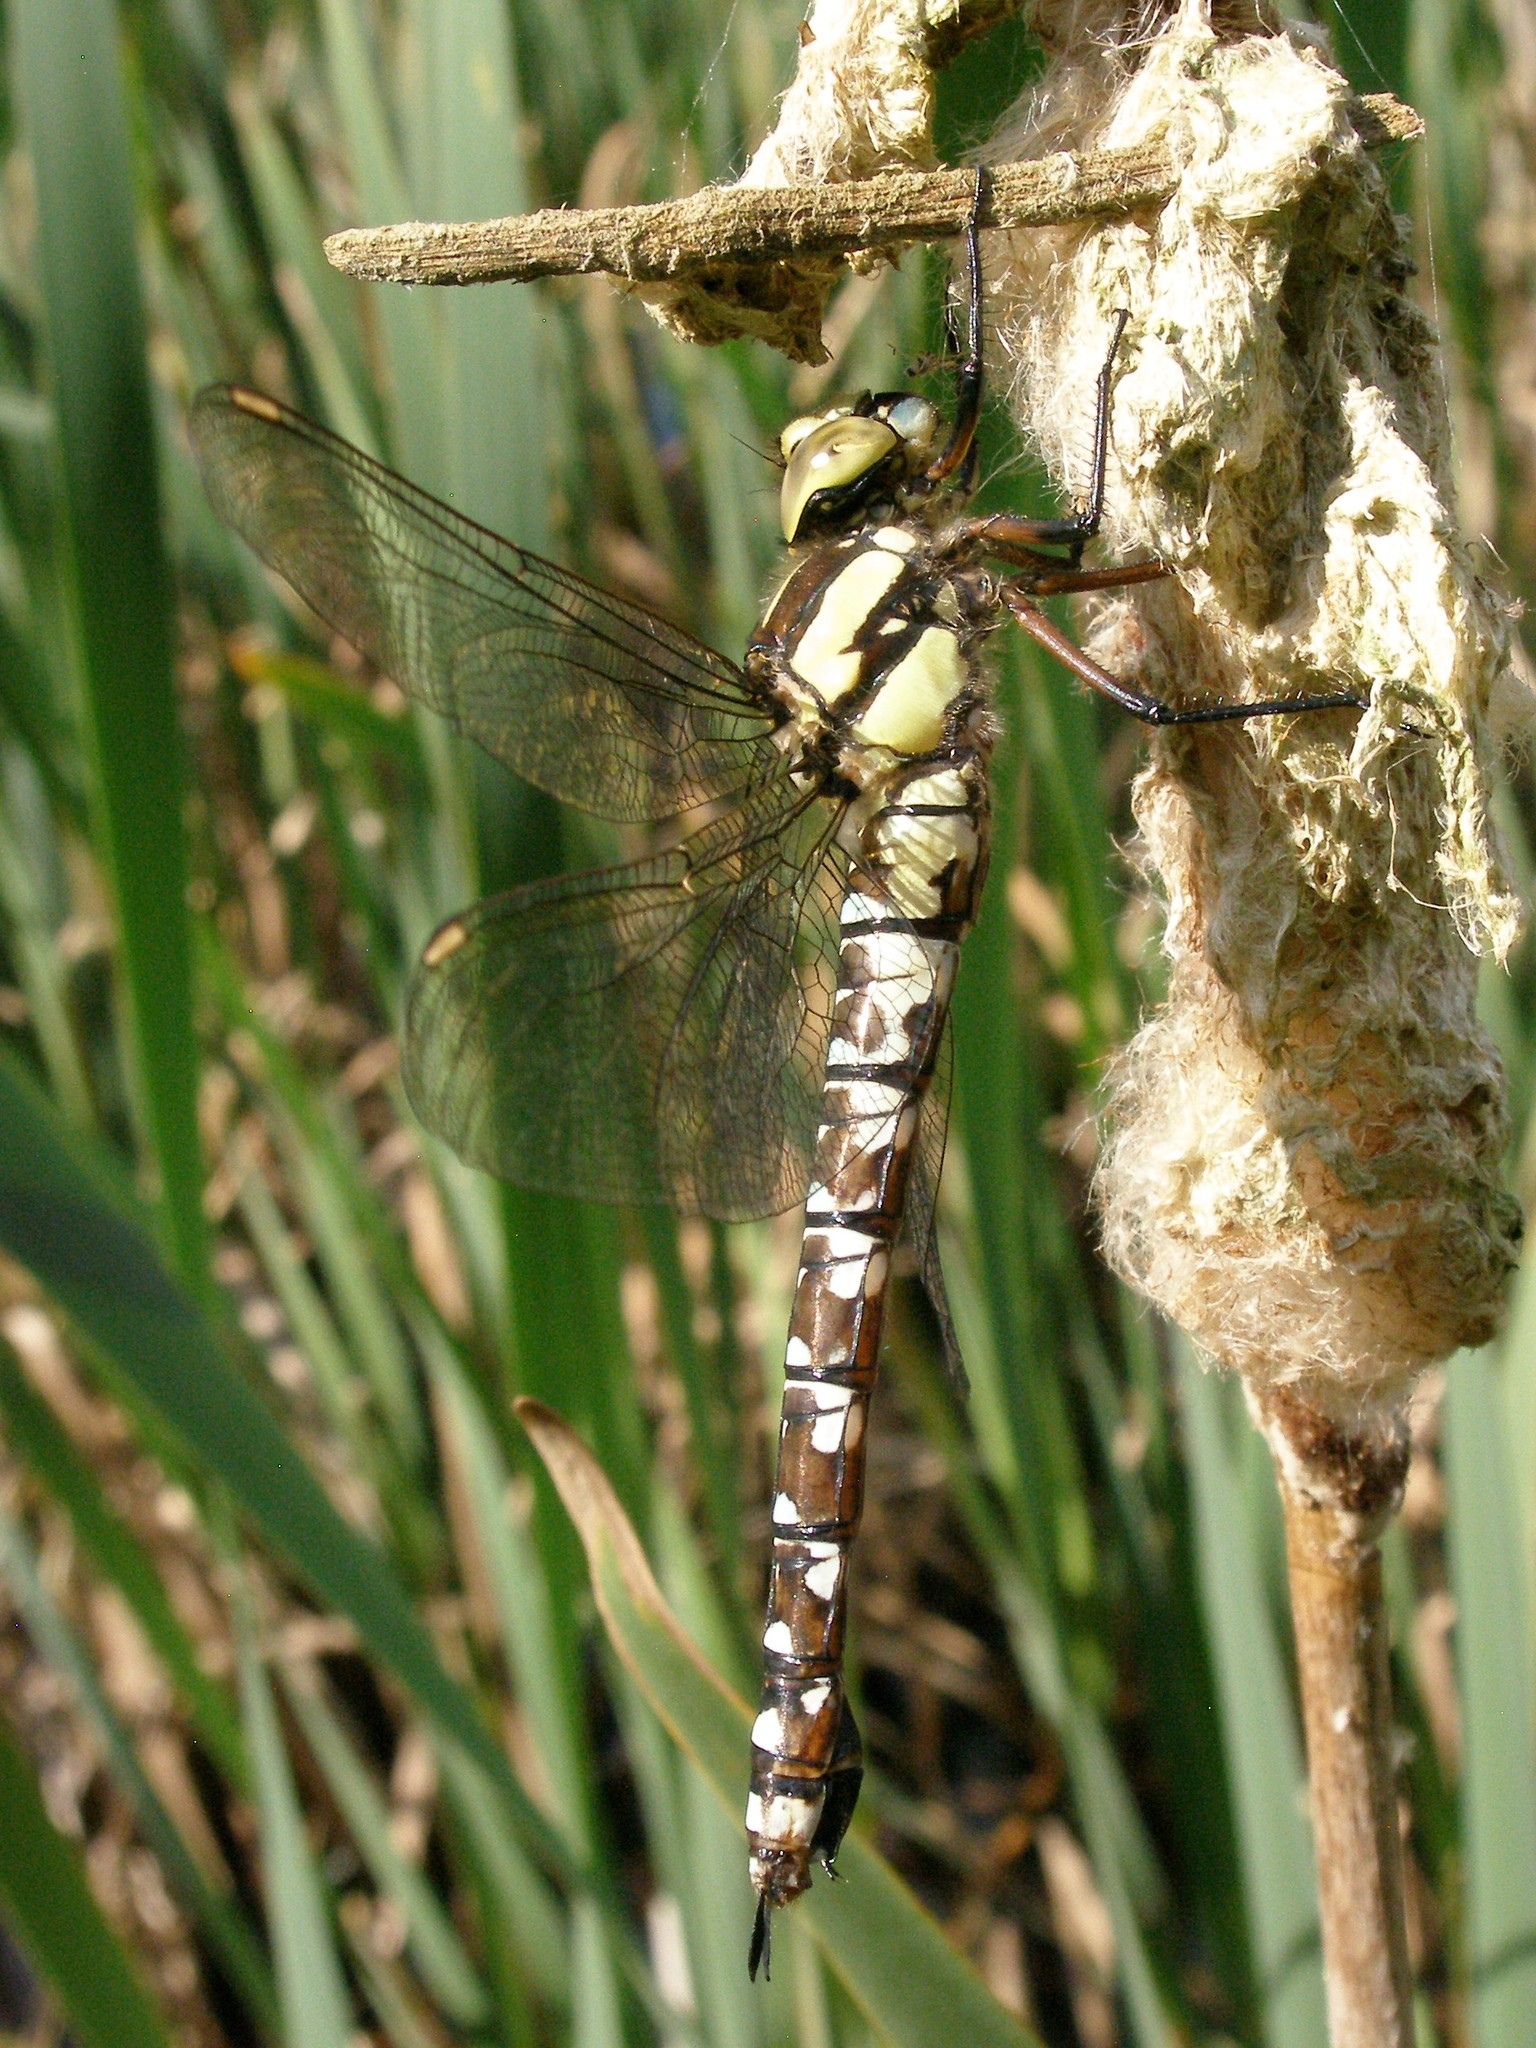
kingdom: Animalia
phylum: Arthropoda
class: Insecta
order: Odonata
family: Aeshnidae
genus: Aeshna
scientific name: Aeshna cyanea
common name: Southern hawker
